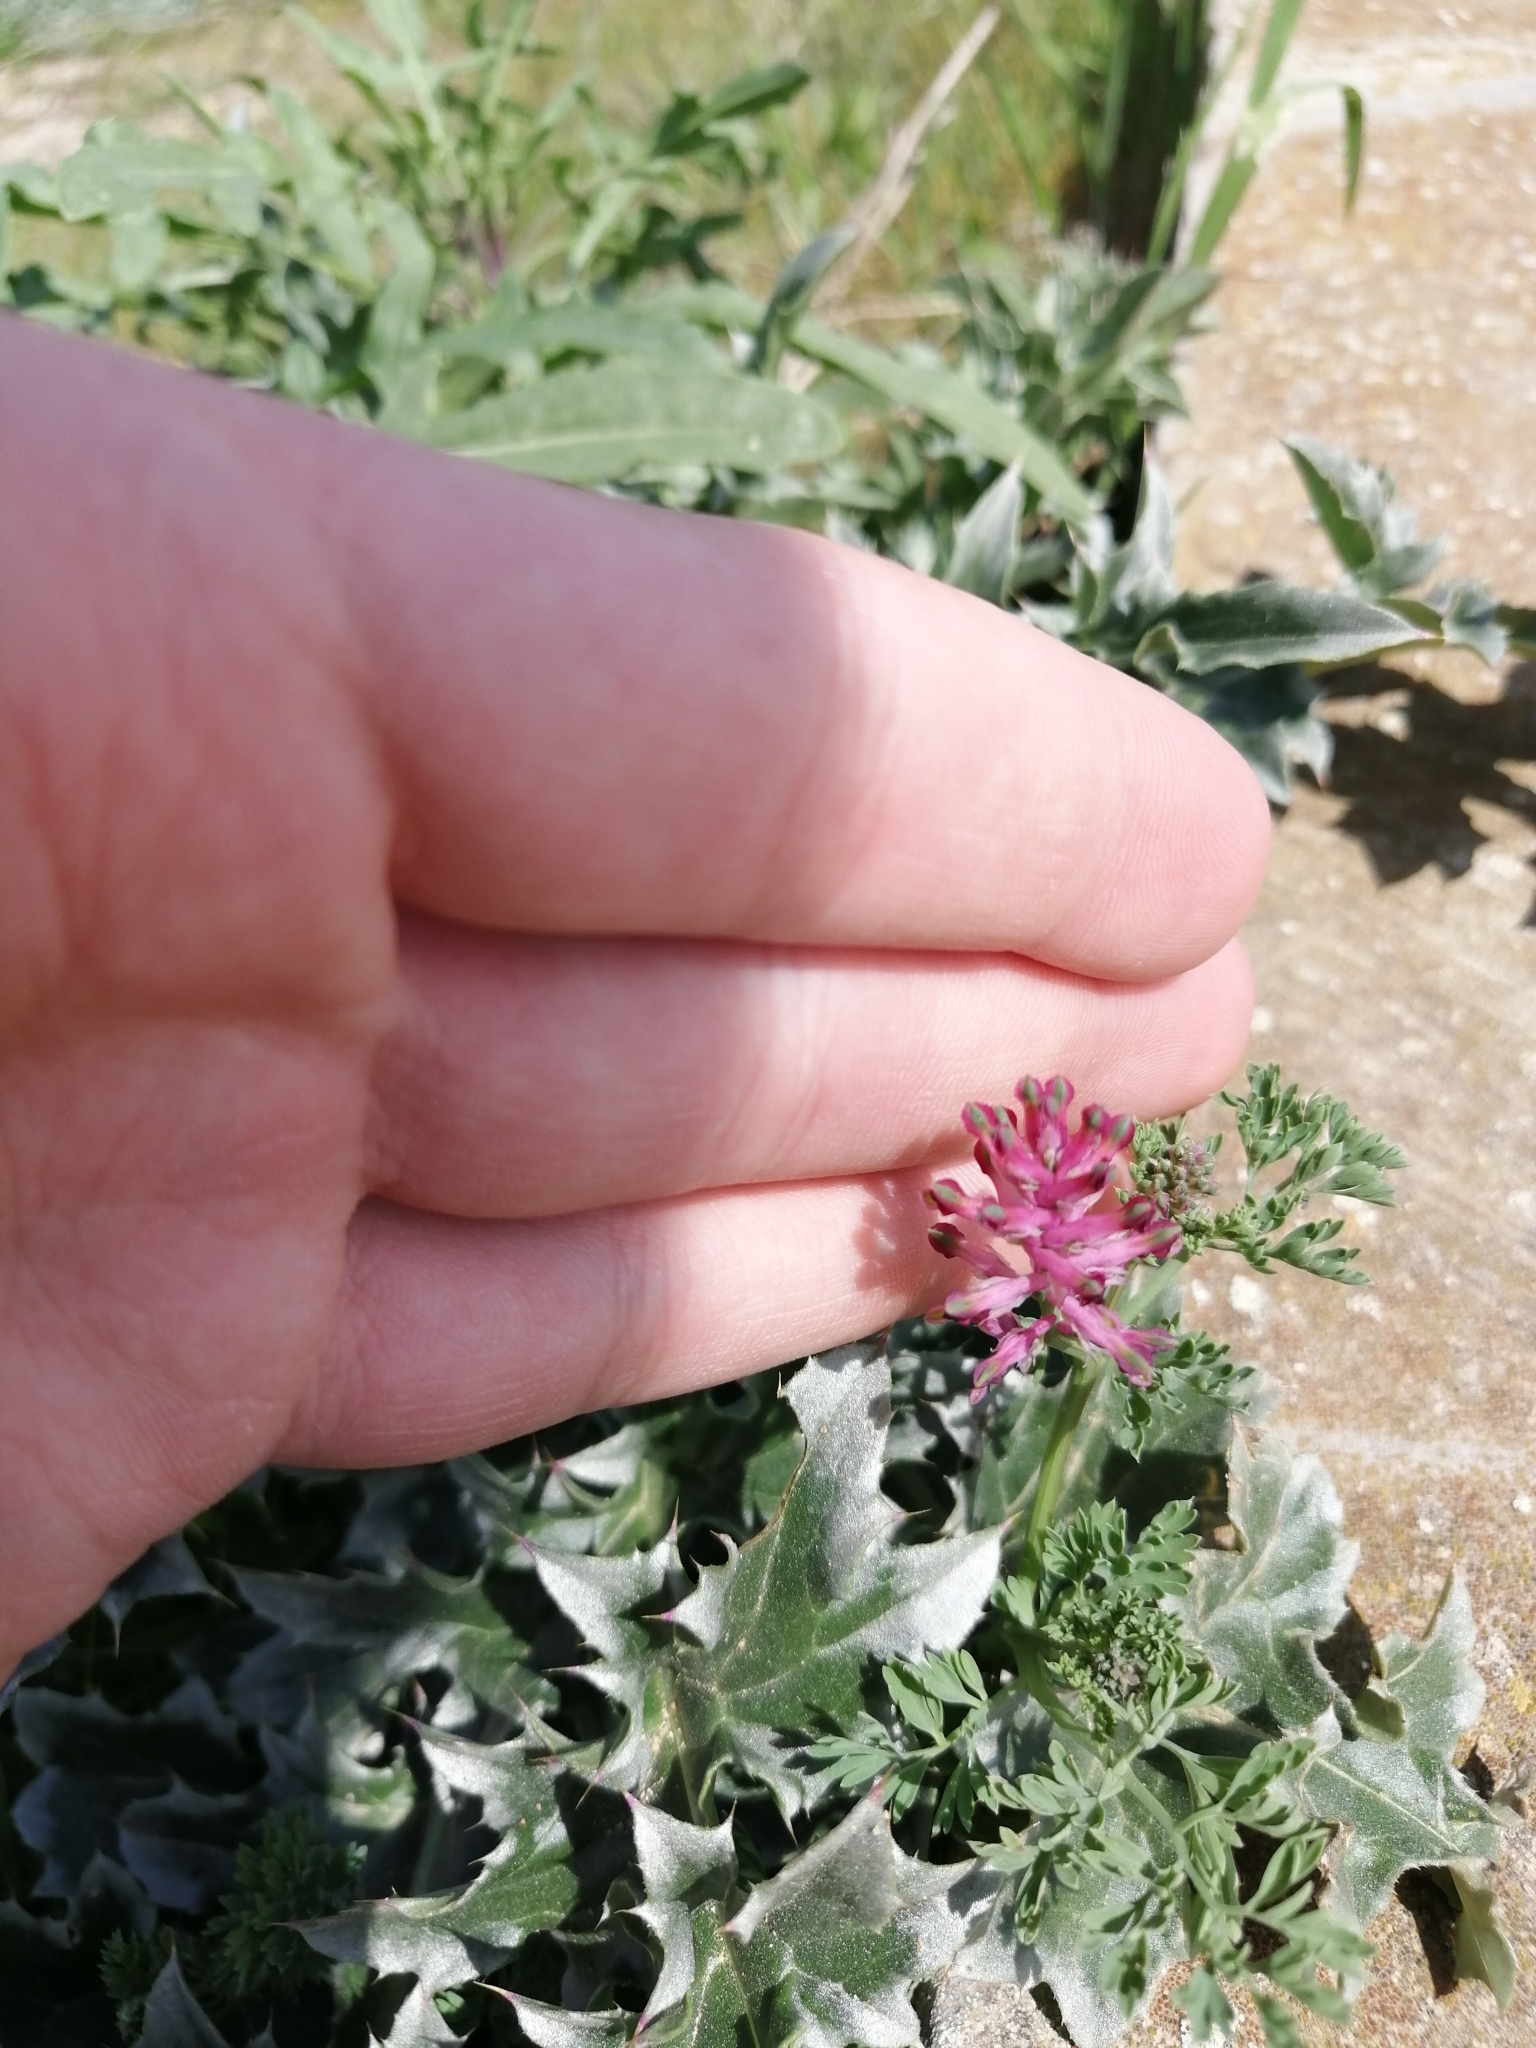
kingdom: Plantae
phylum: Tracheophyta
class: Magnoliopsida
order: Ranunculales
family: Papaveraceae
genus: Fumaria
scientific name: Fumaria officinalis
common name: Common fumitory
